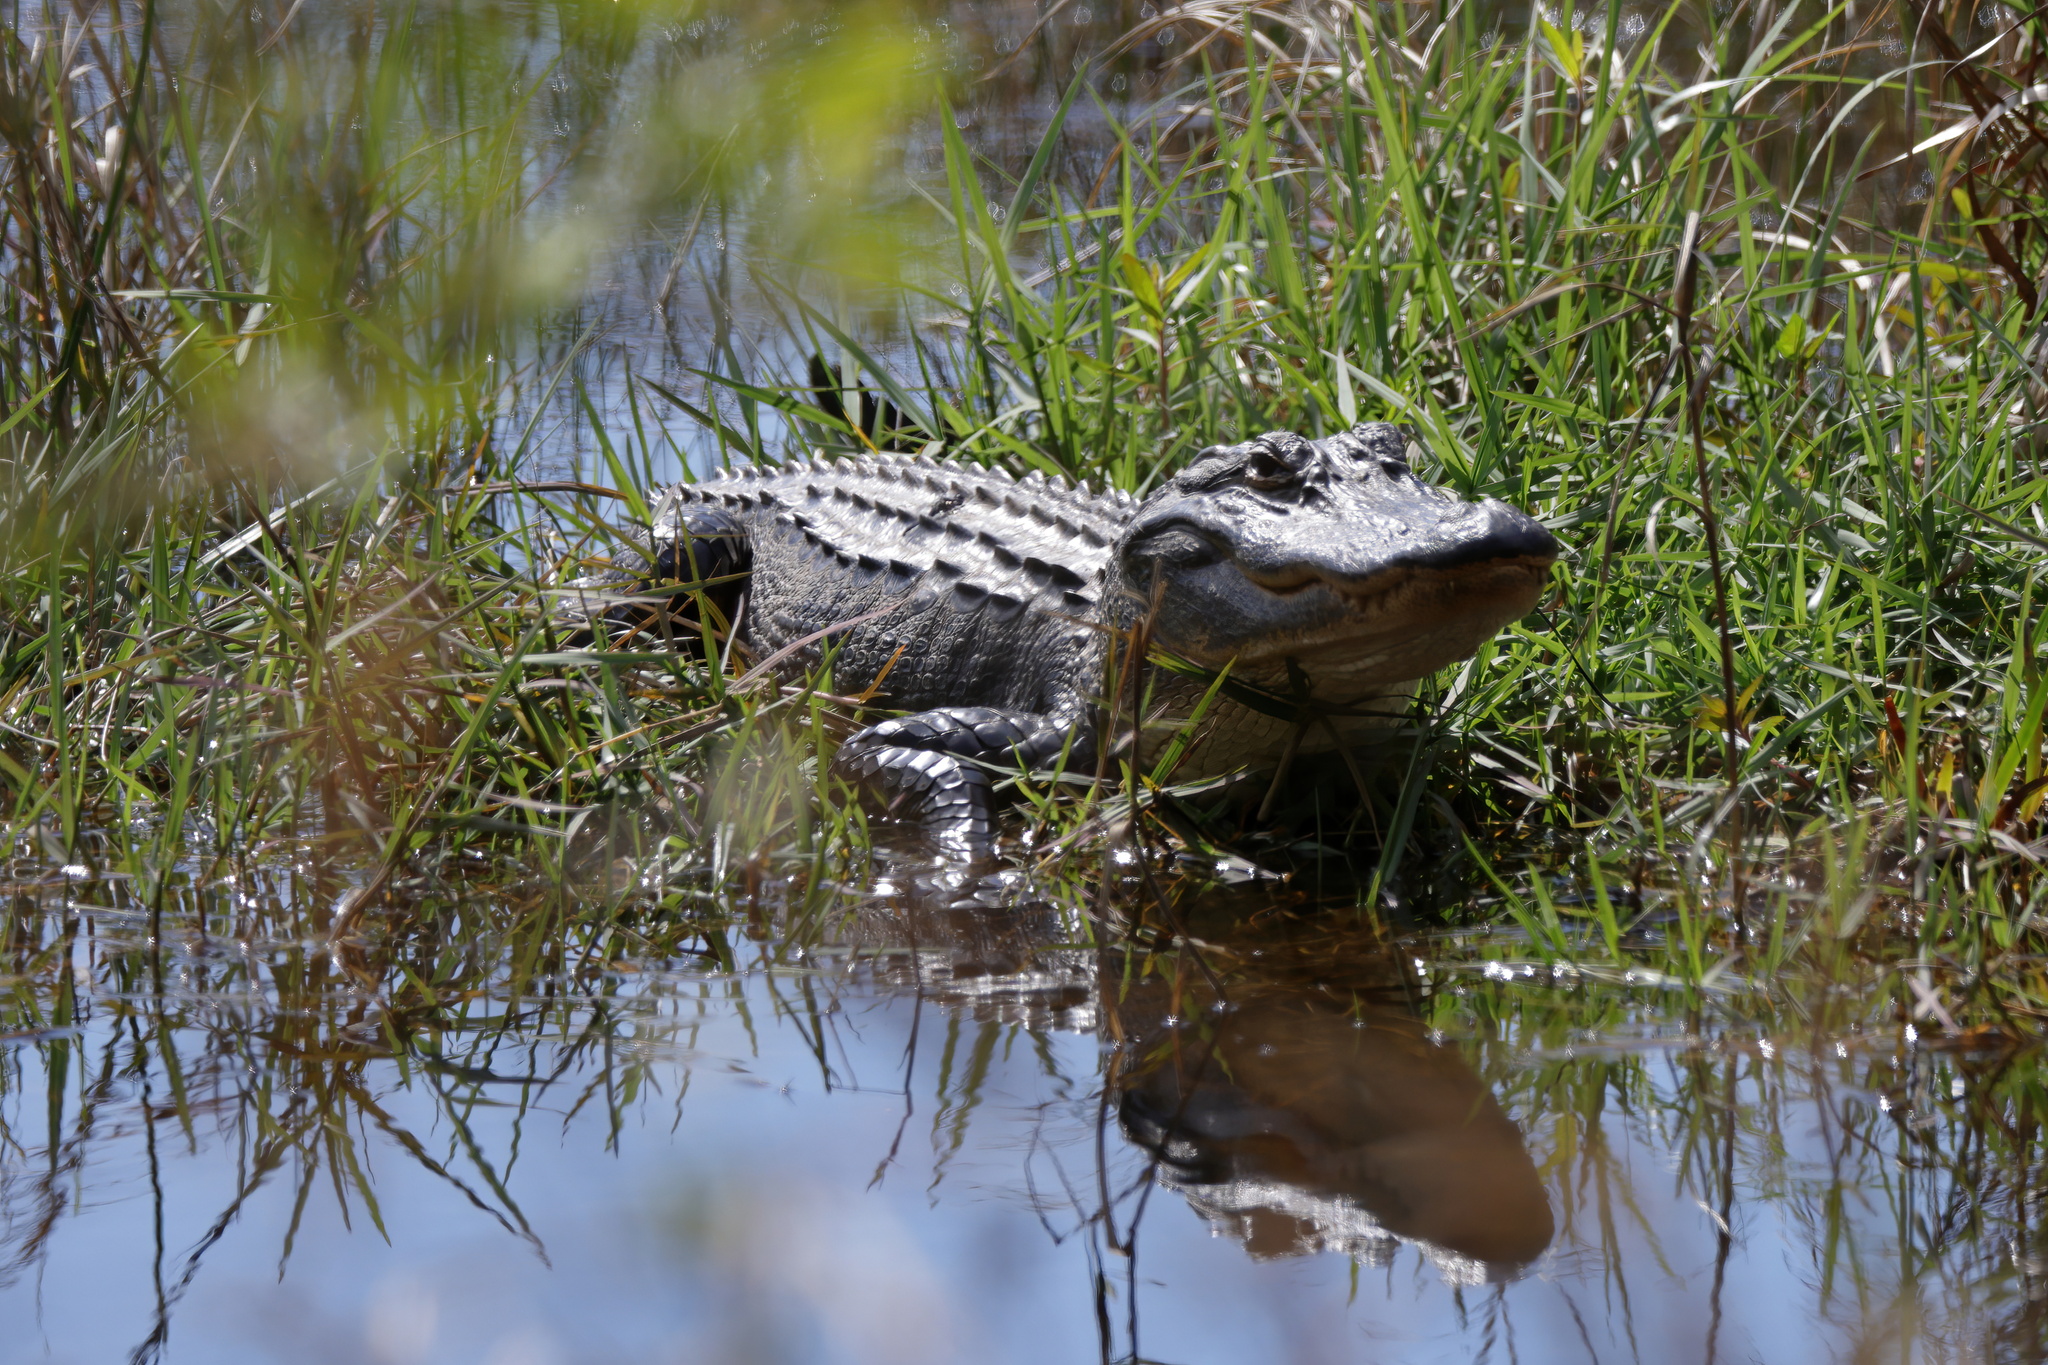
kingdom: Animalia
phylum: Chordata
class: Crocodylia
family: Alligatoridae
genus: Alligator
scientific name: Alligator mississippiensis
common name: American alligator
